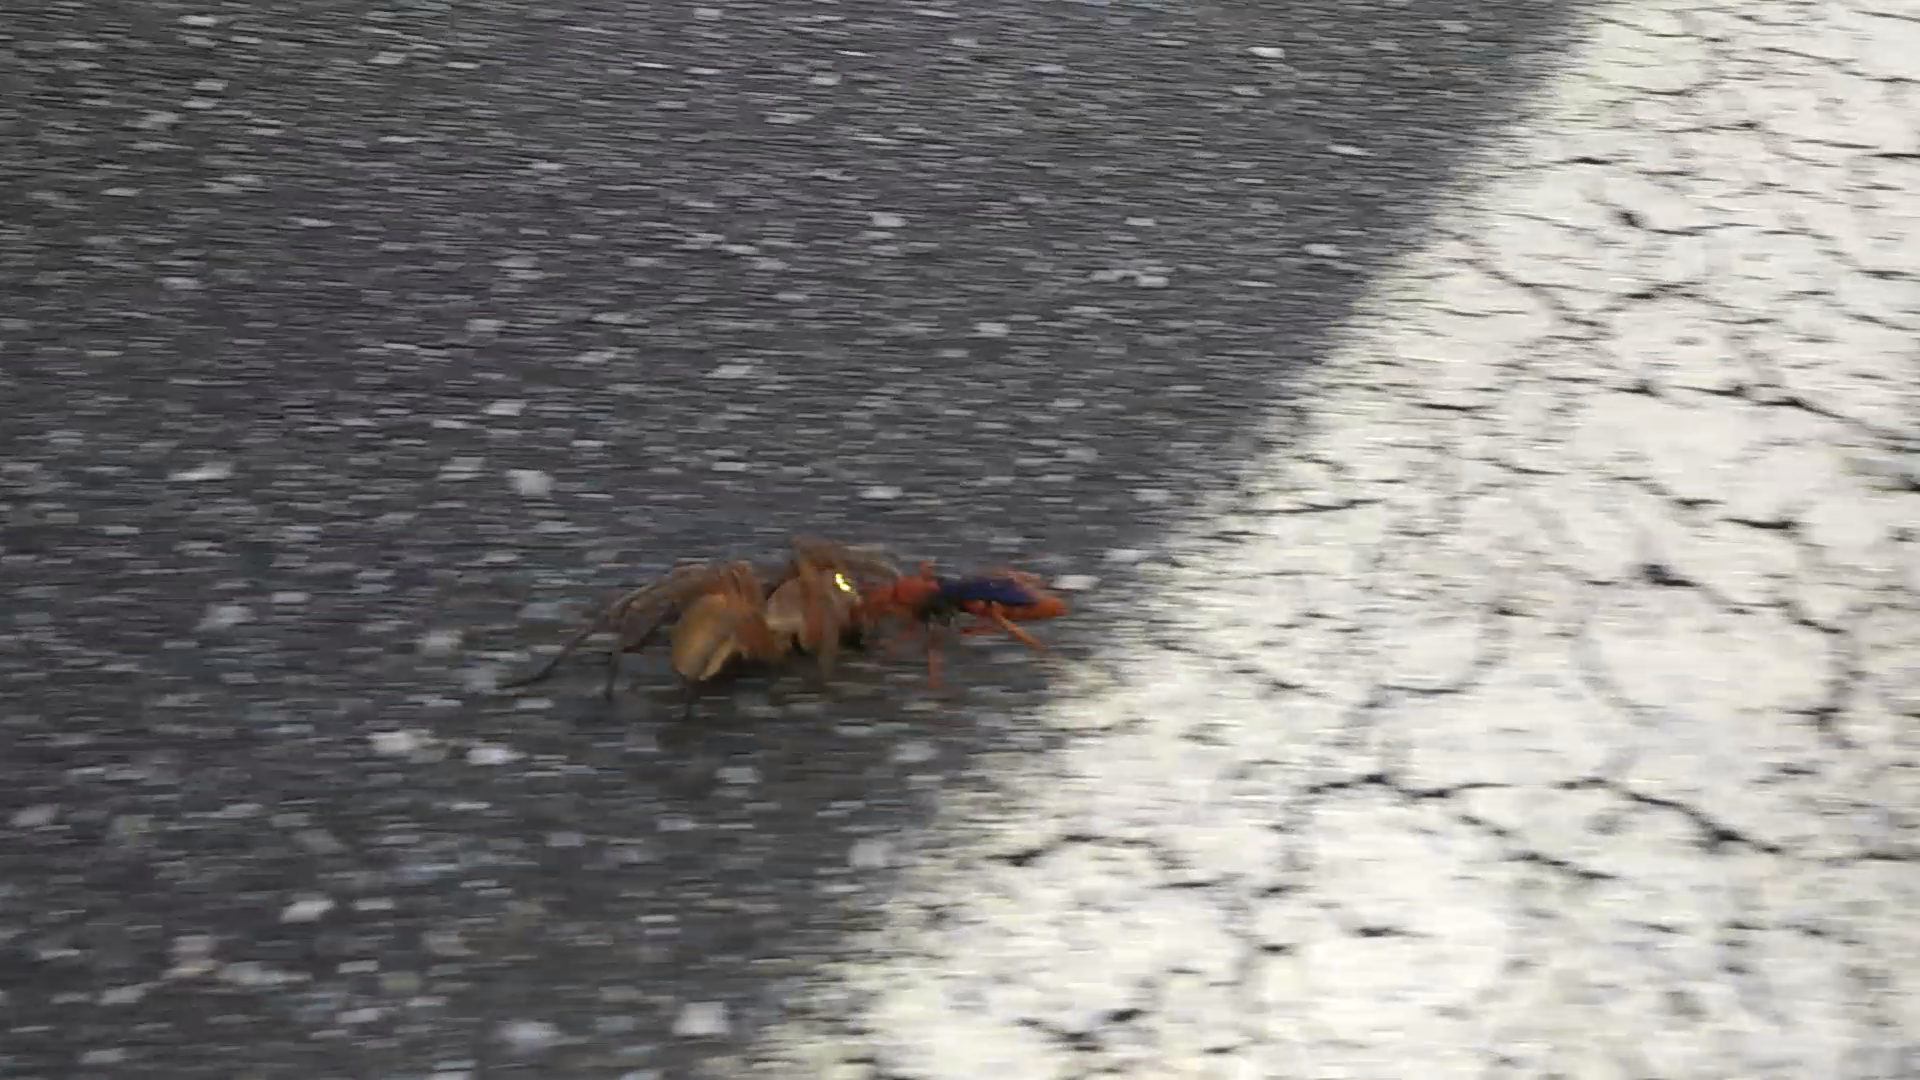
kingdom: Animalia
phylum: Arthropoda
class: Insecta
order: Hymenoptera
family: Pompilidae
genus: Tachypompilus
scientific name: Tachypompilus ferrugineus
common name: Rusty spider wasp
